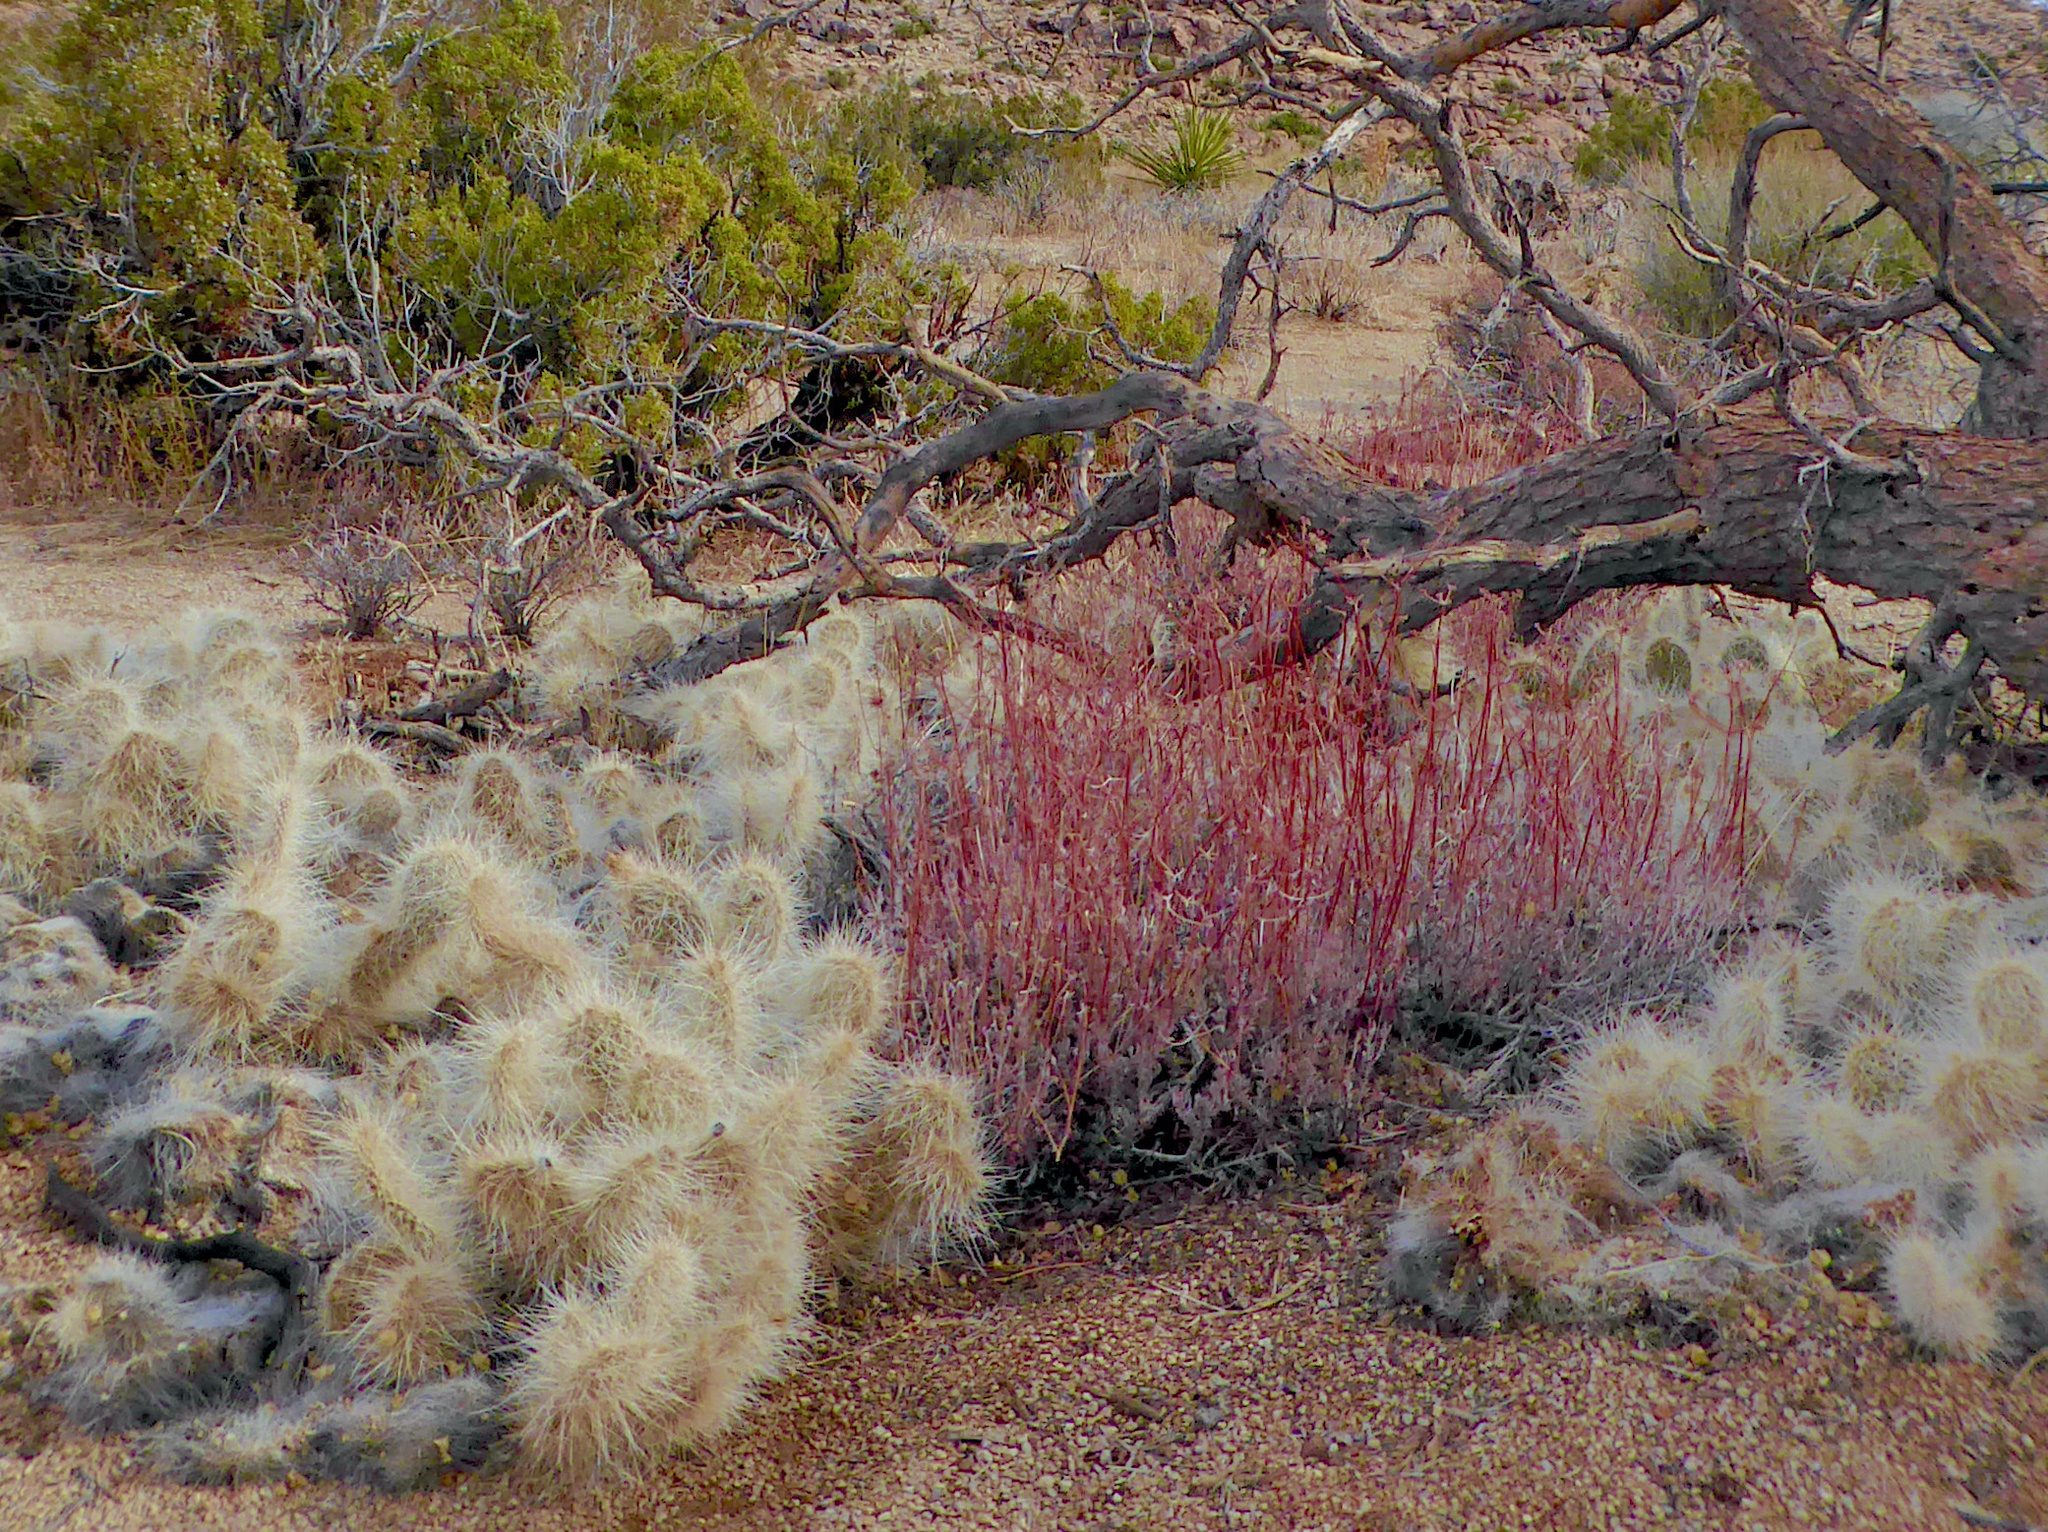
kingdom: Plantae
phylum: Tracheophyta
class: Magnoliopsida
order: Caryophyllales
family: Cactaceae
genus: Opuntia
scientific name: Opuntia polyacantha
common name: Plains prickly-pear
